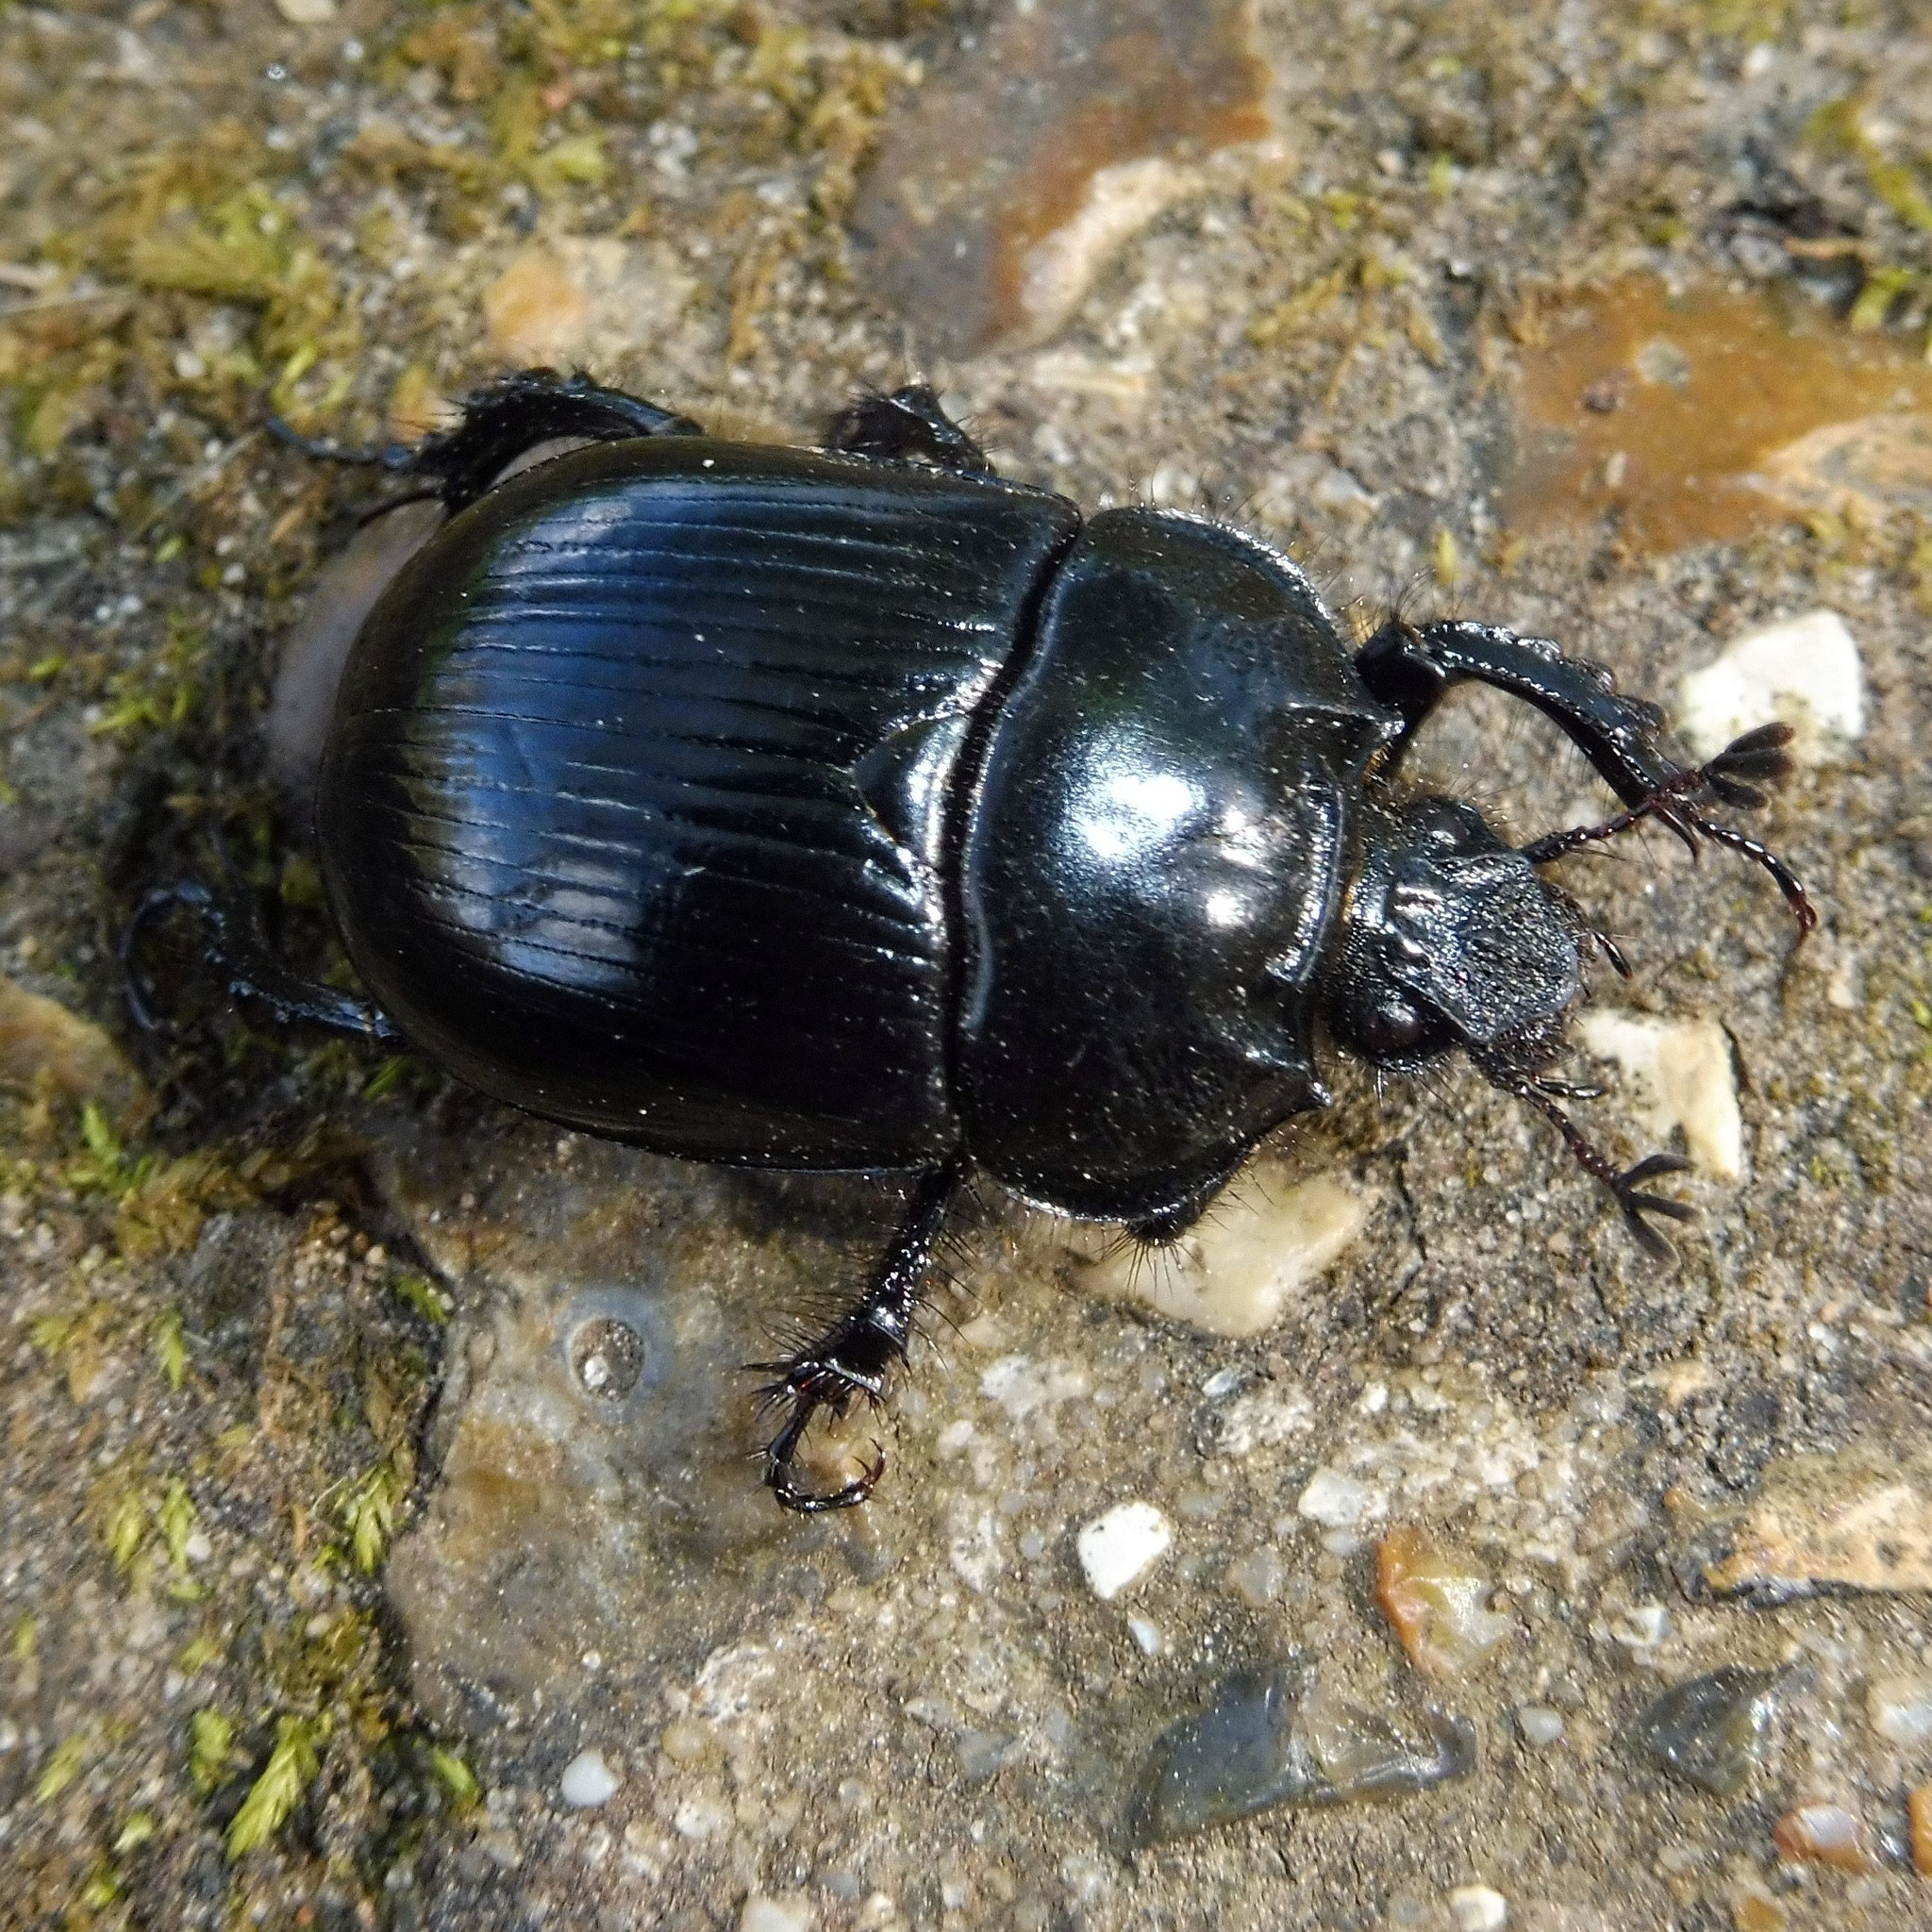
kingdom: Animalia
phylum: Arthropoda
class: Insecta
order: Coleoptera
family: Geotrupidae
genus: Typhaeus
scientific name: Typhaeus typhoeus
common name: Minotaur beetle
